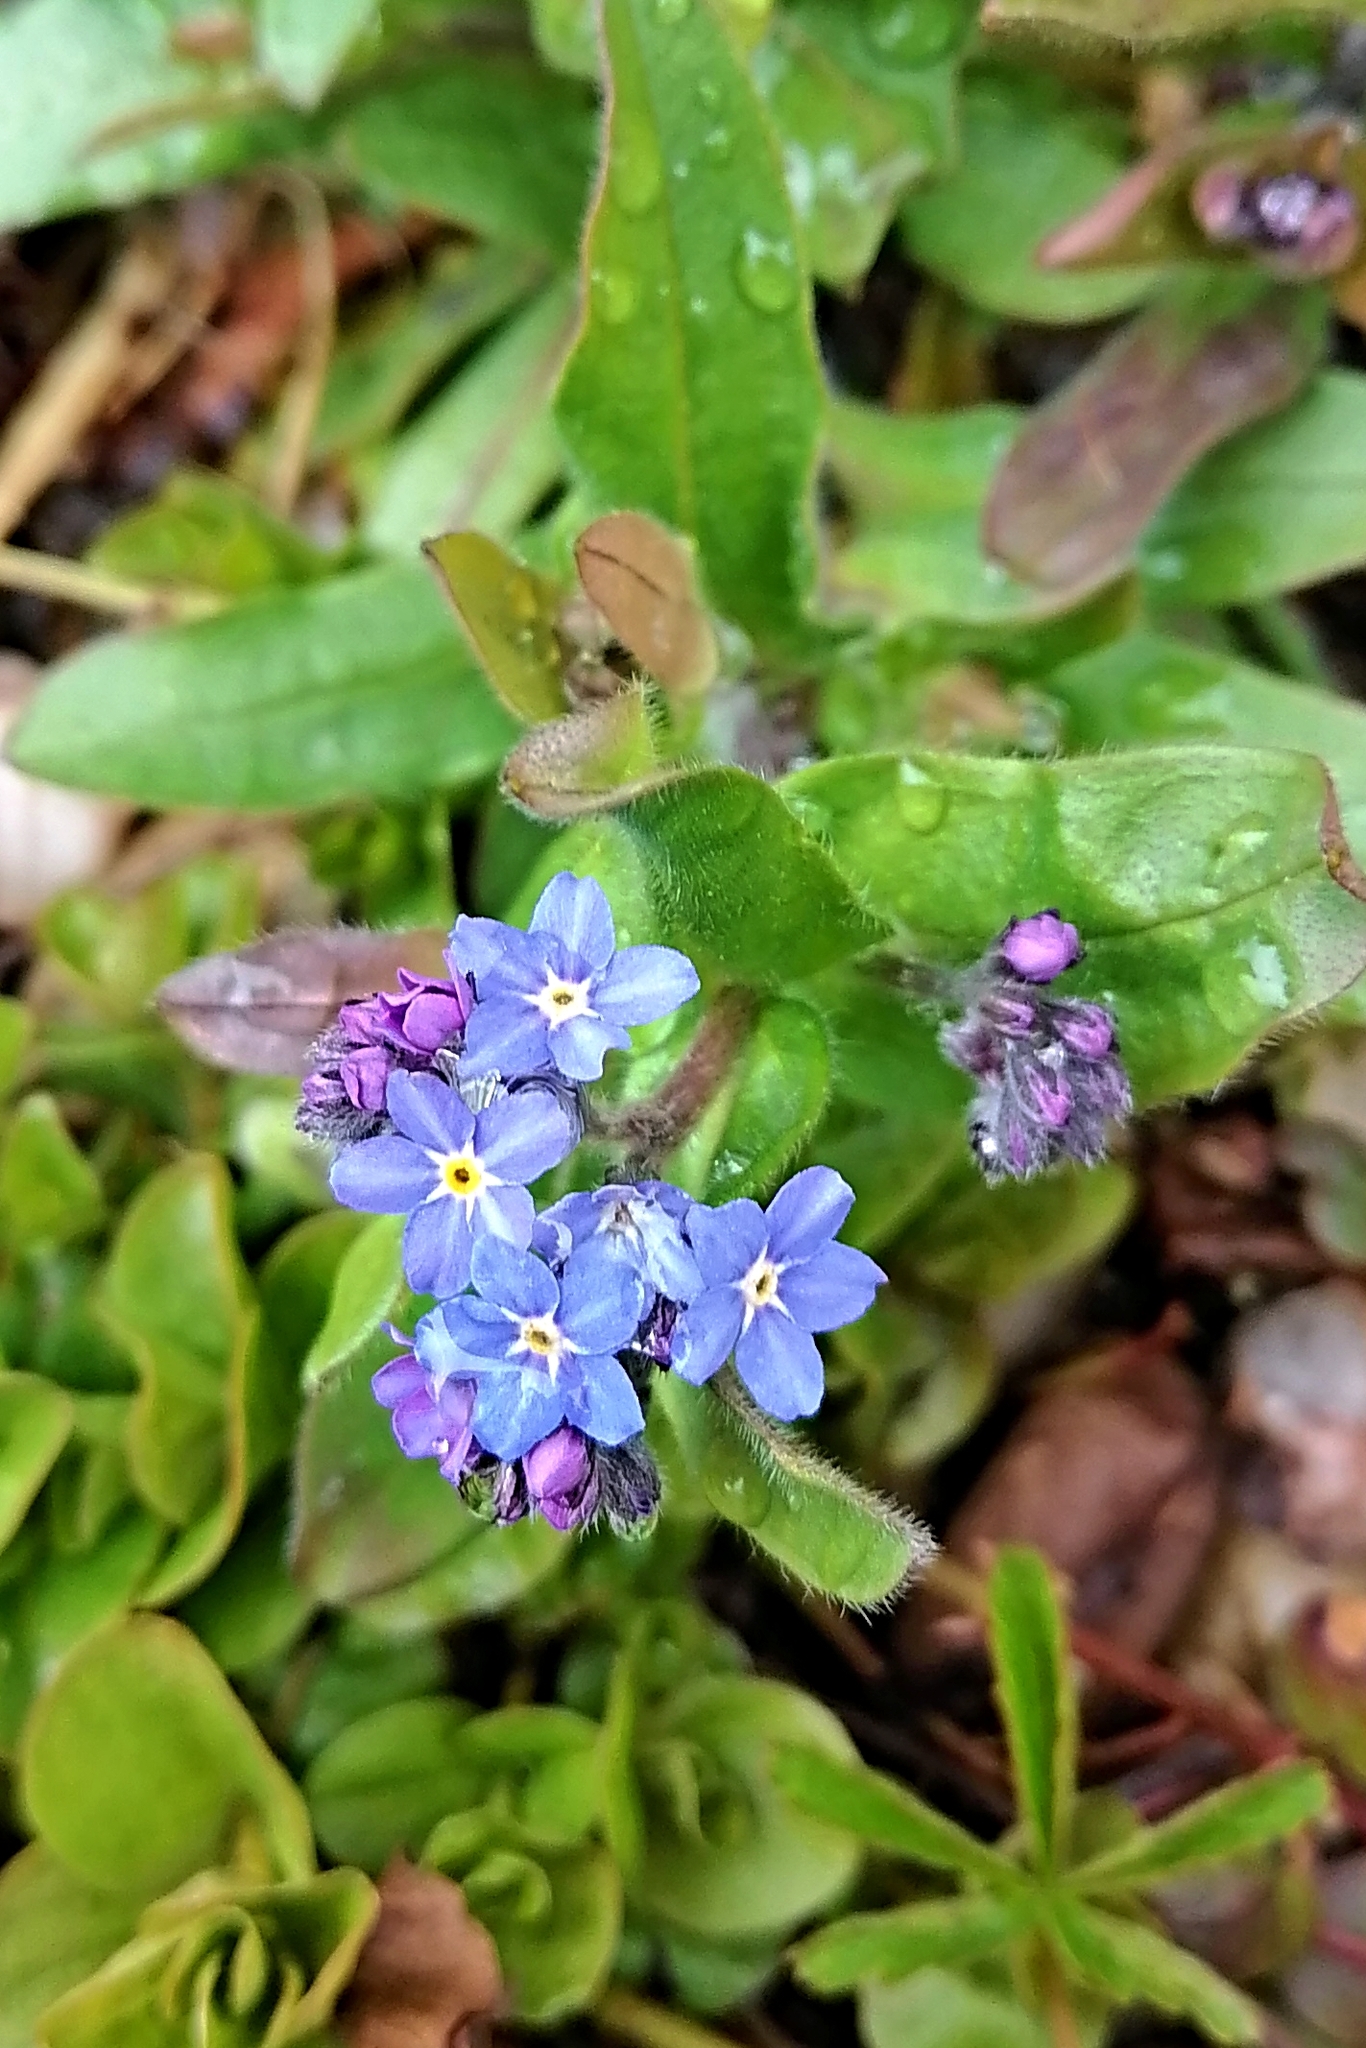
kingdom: Plantae
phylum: Tracheophyta
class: Magnoliopsida
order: Boraginales
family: Boraginaceae
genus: Myosotis
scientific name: Myosotis sylvatica
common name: Wood forget-me-not
